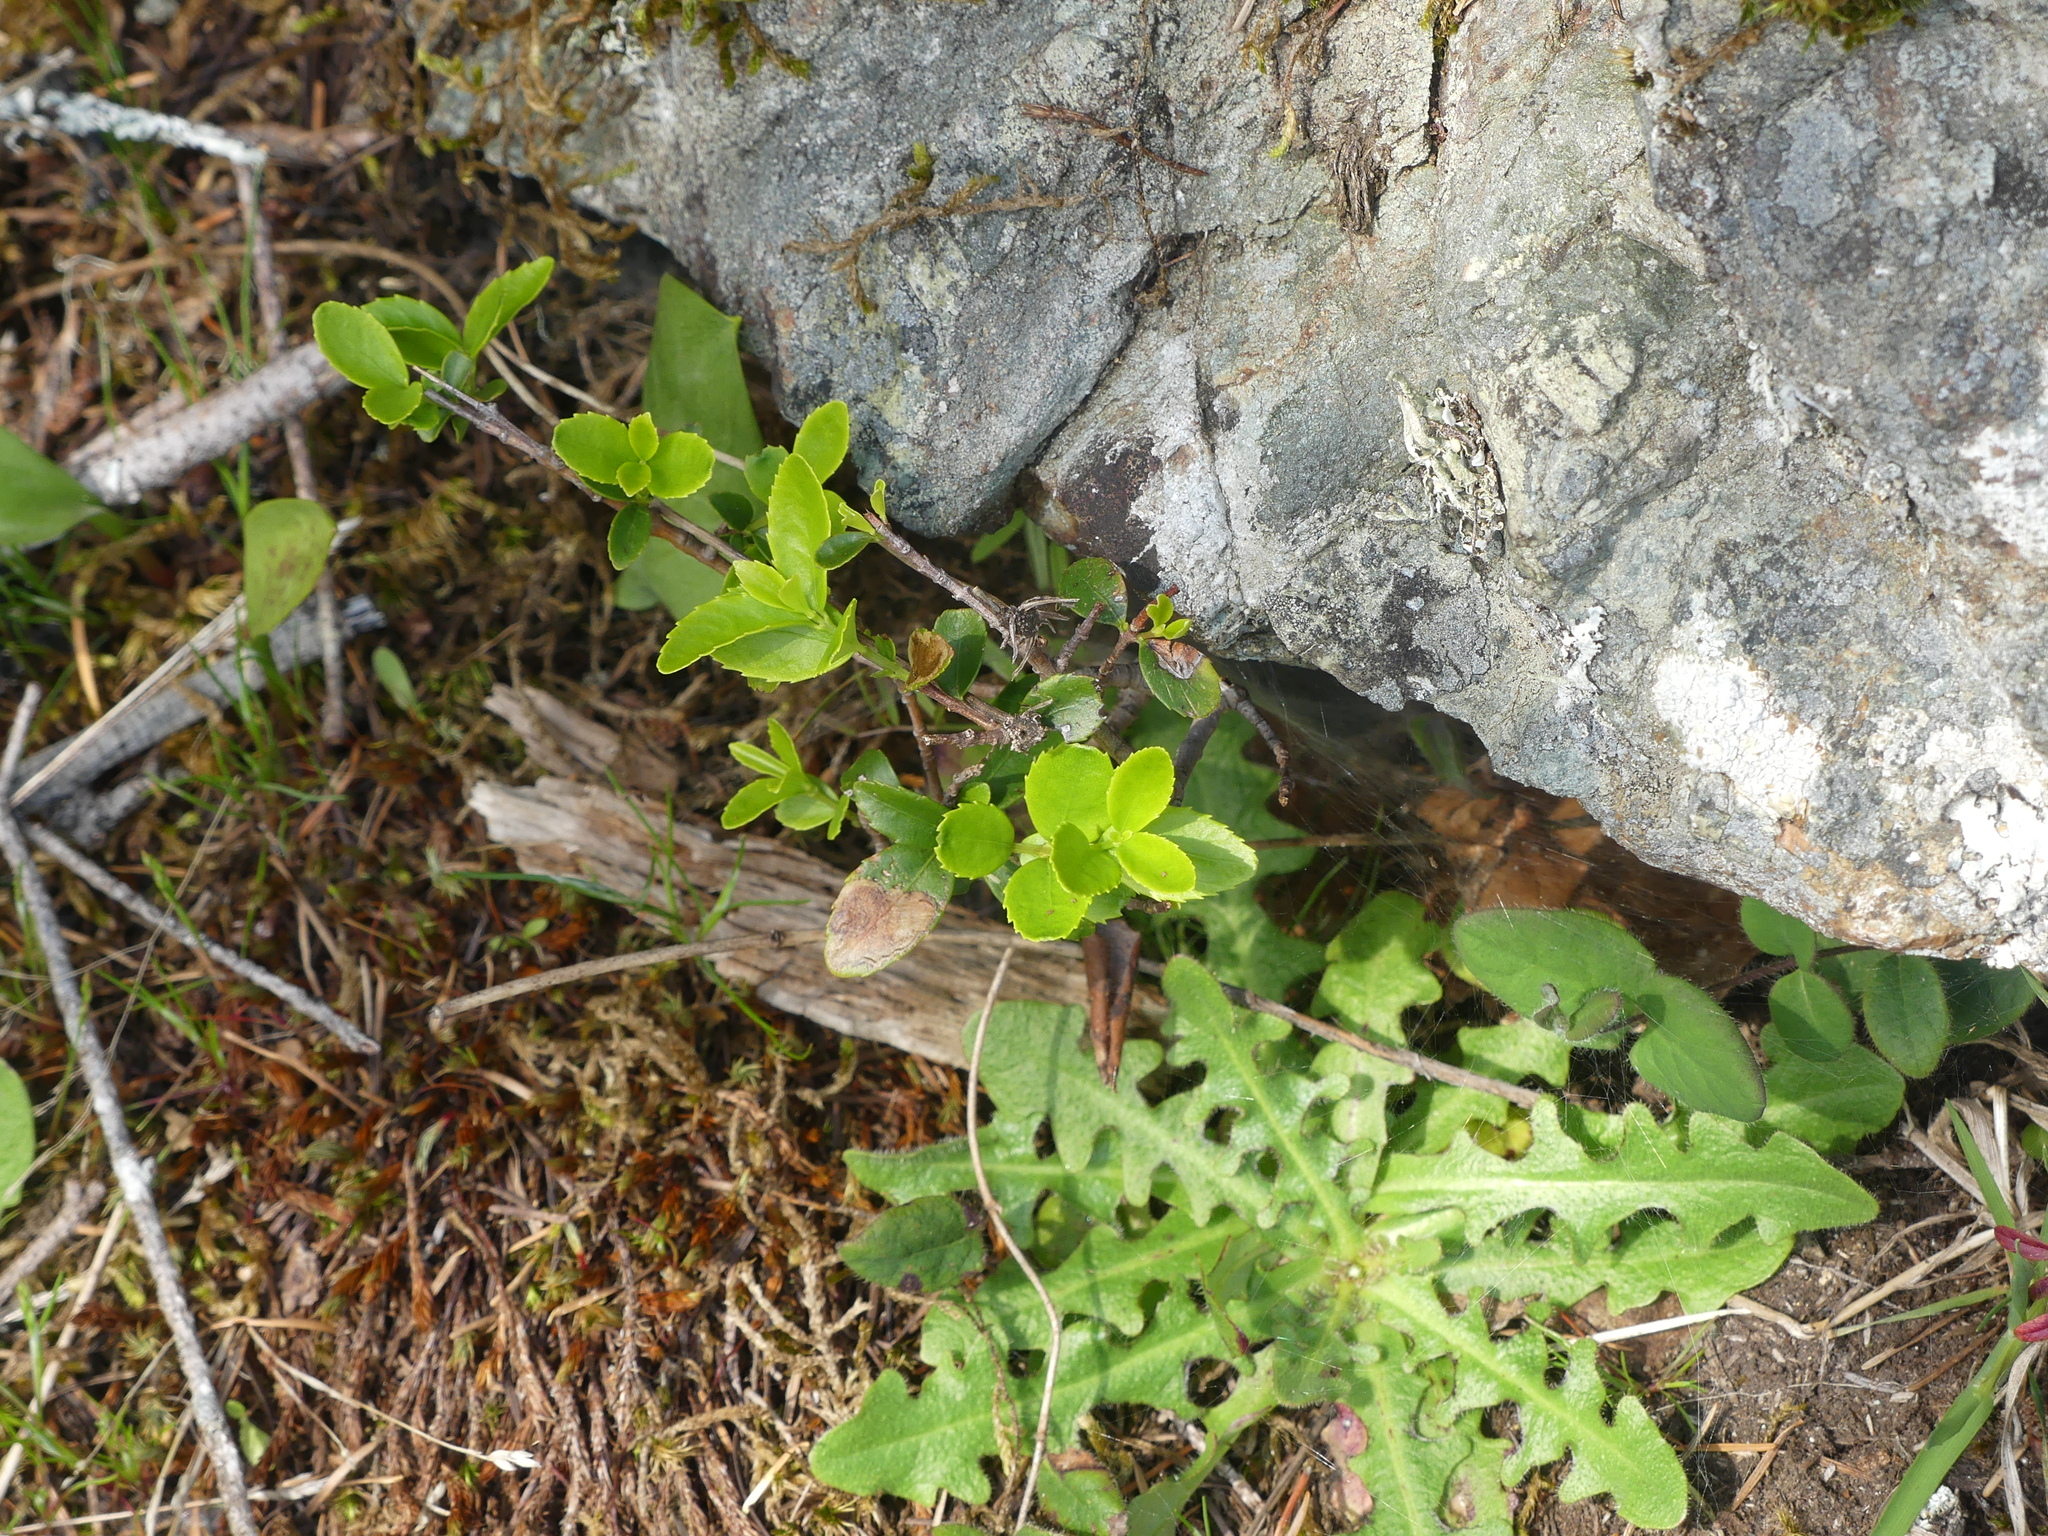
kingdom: Plantae
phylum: Tracheophyta
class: Magnoliopsida
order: Celastrales
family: Celastraceae
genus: Paxistima
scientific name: Paxistima myrsinites
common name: Mountain-lover
